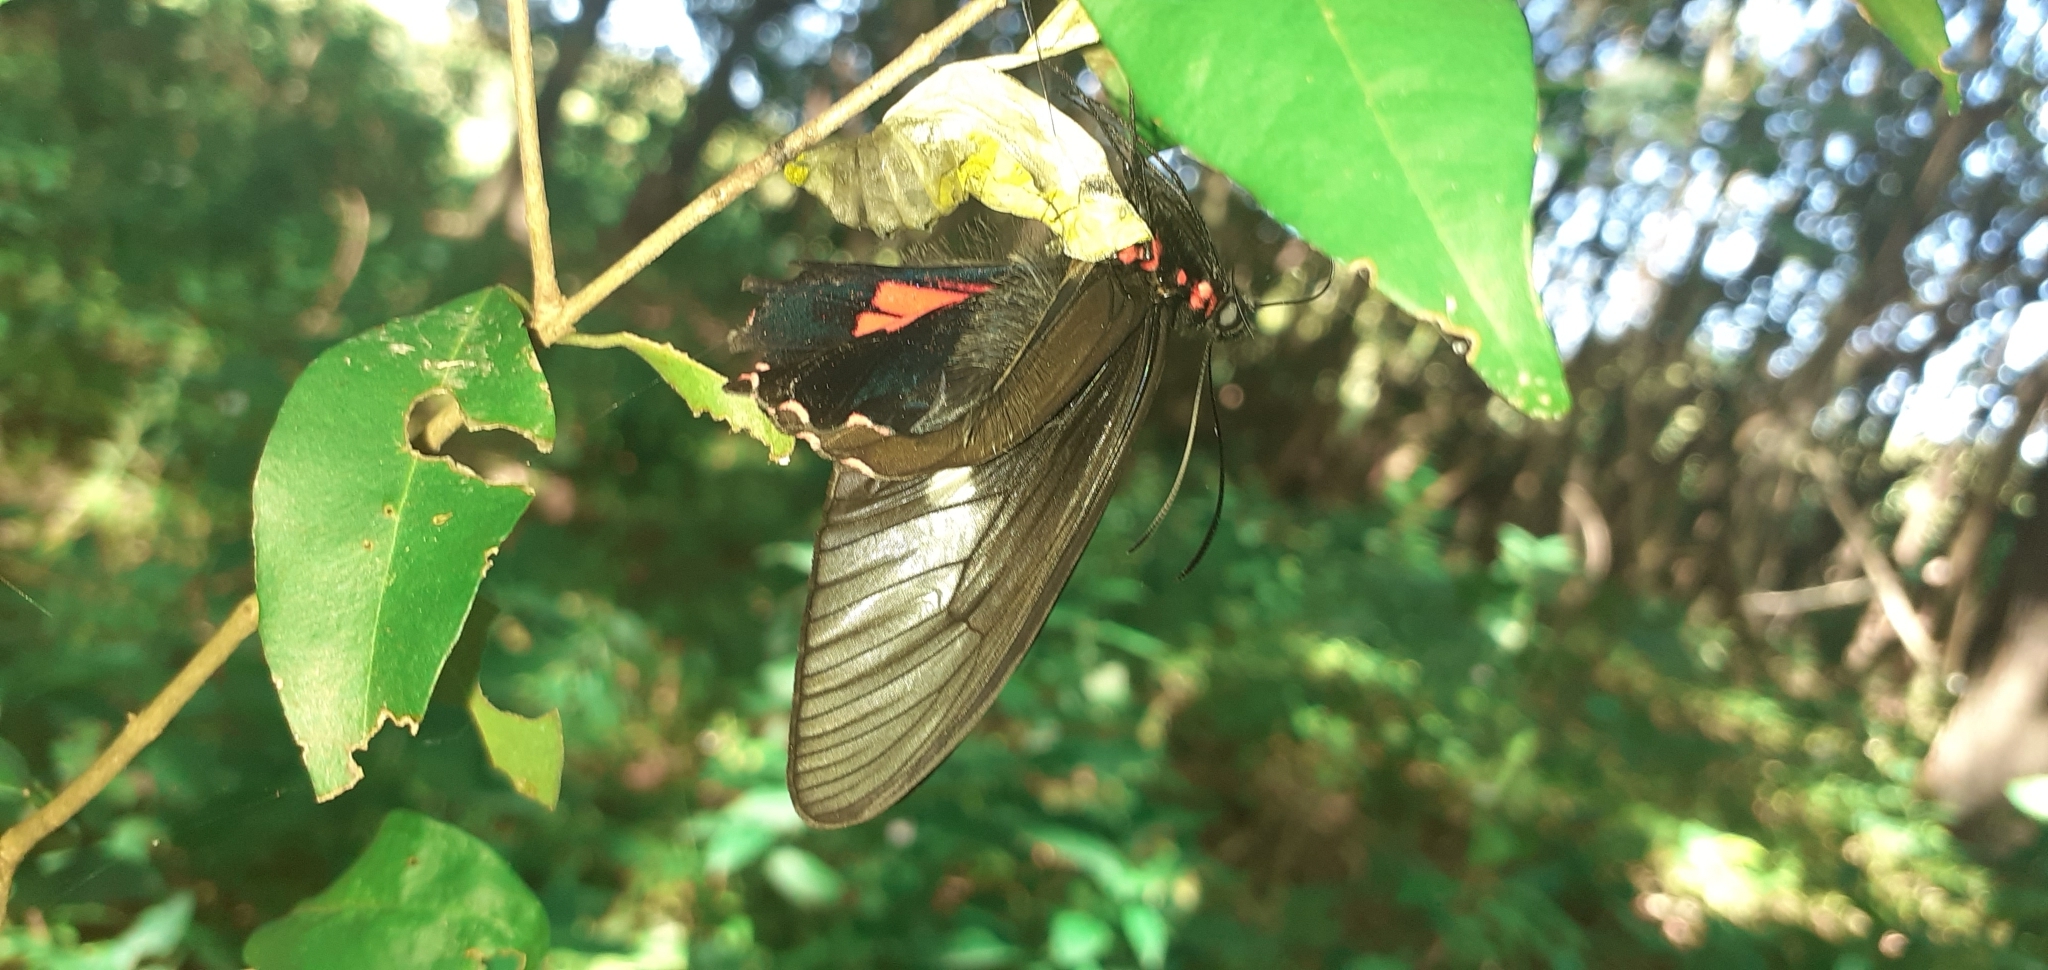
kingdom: Animalia
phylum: Arthropoda
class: Insecta
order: Lepidoptera
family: Papilionidae
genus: Papilio
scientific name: Papilio anchisiades
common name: Idaes swallowtail
